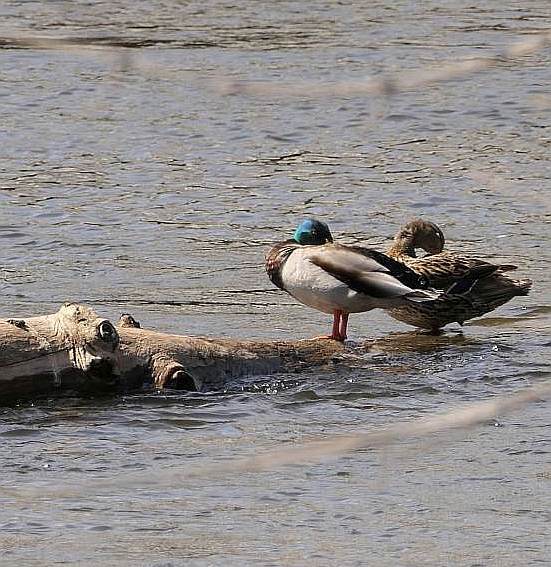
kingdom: Animalia
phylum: Chordata
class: Aves
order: Anseriformes
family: Anatidae
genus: Anas
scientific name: Anas platyrhynchos
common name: Mallard
